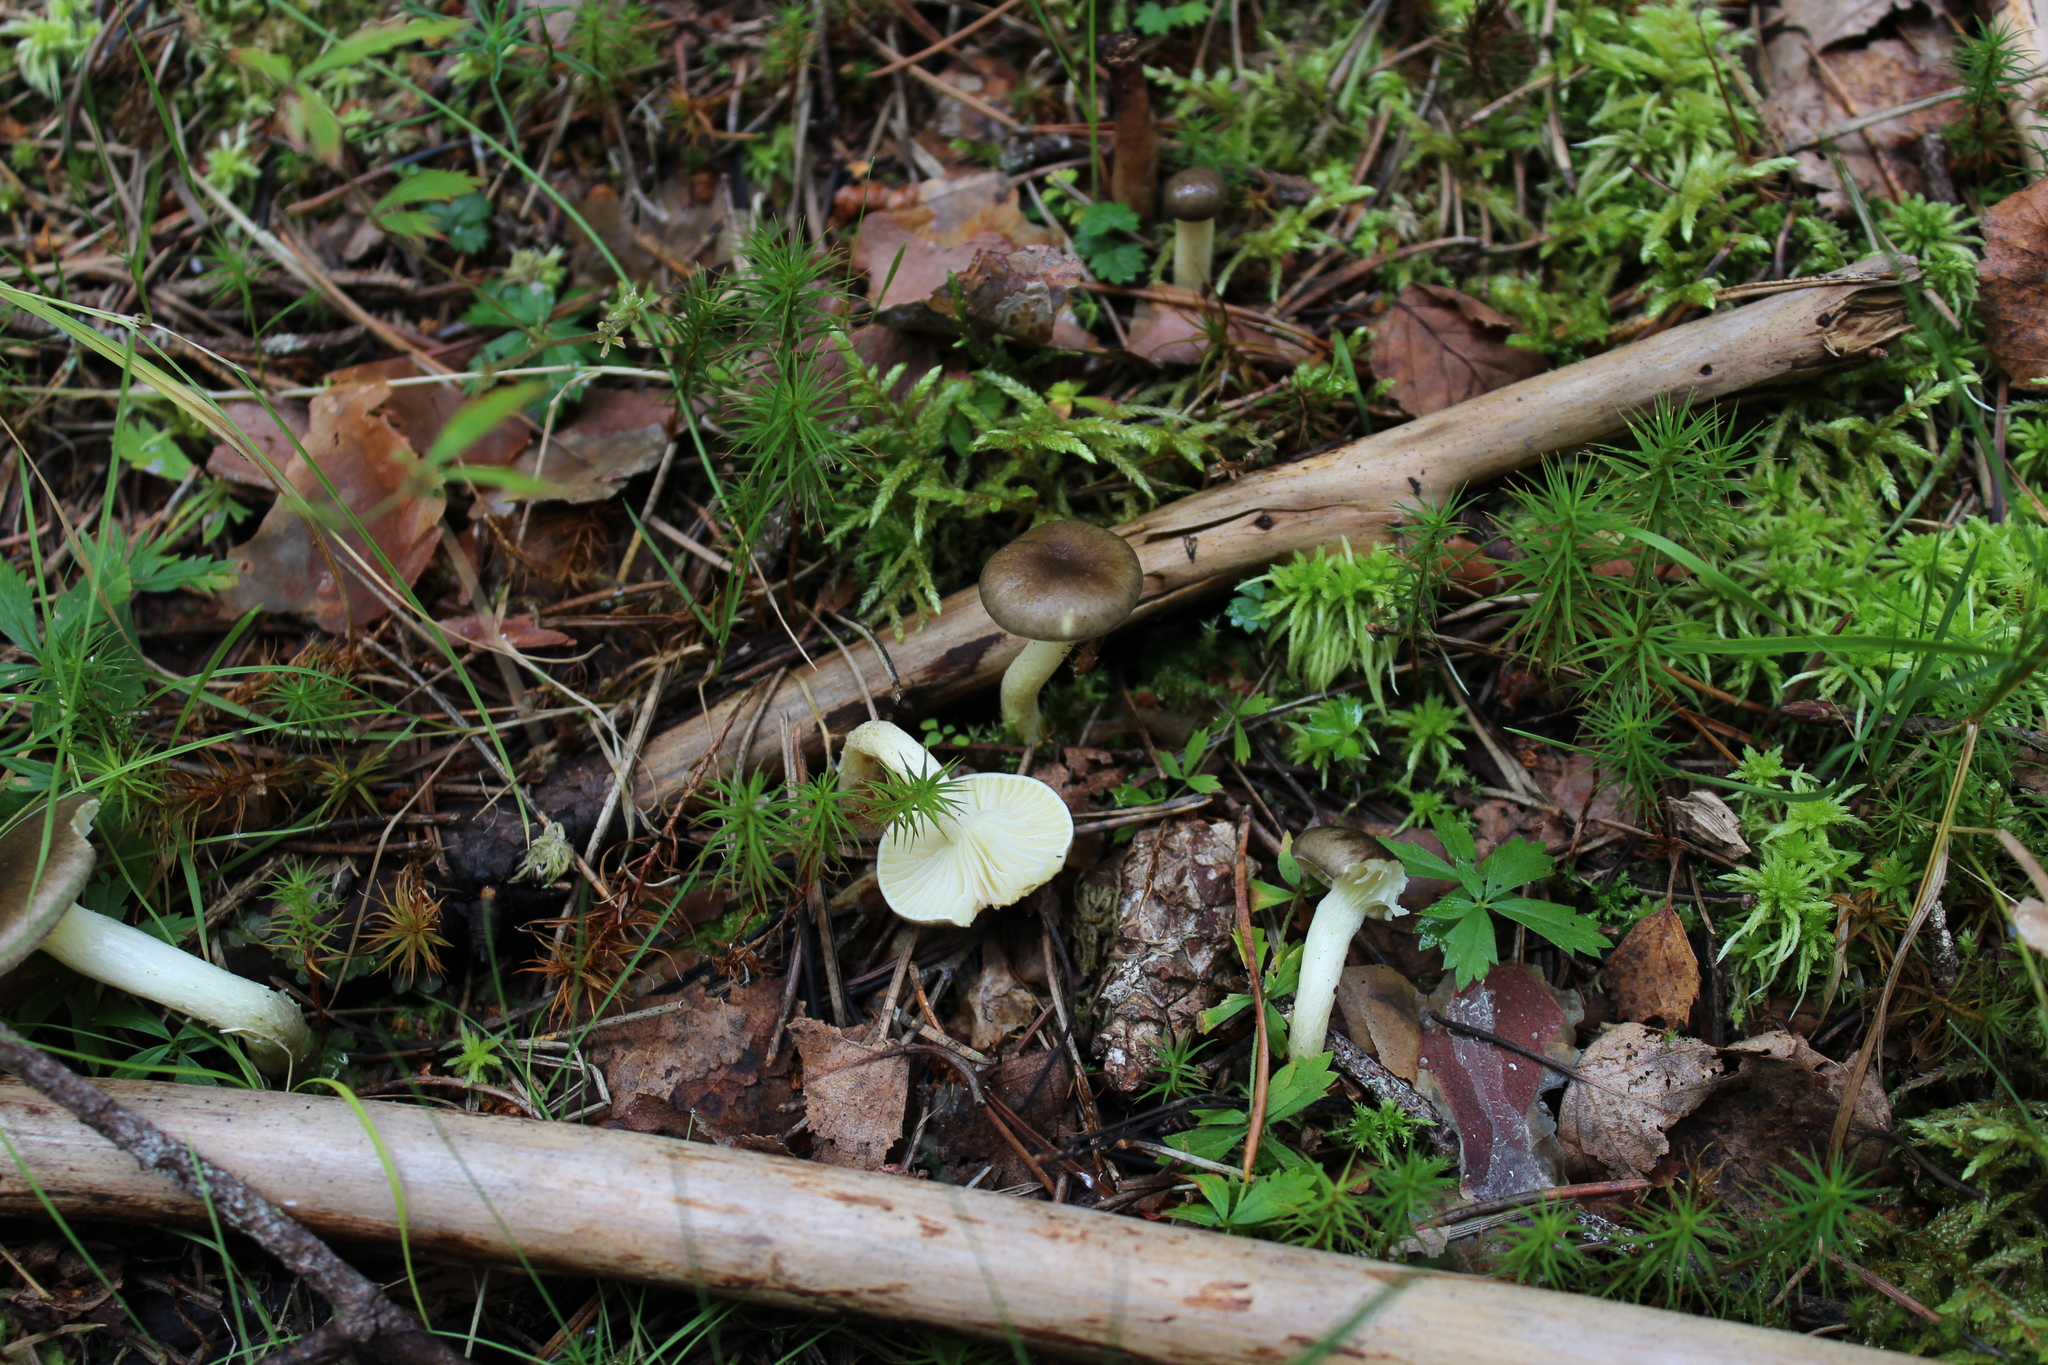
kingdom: Fungi
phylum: Basidiomycota
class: Agaricomycetes
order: Agaricales
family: Hygrophoraceae
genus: Hygrophorus
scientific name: Hygrophorus hypothejus
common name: Herald of winter
